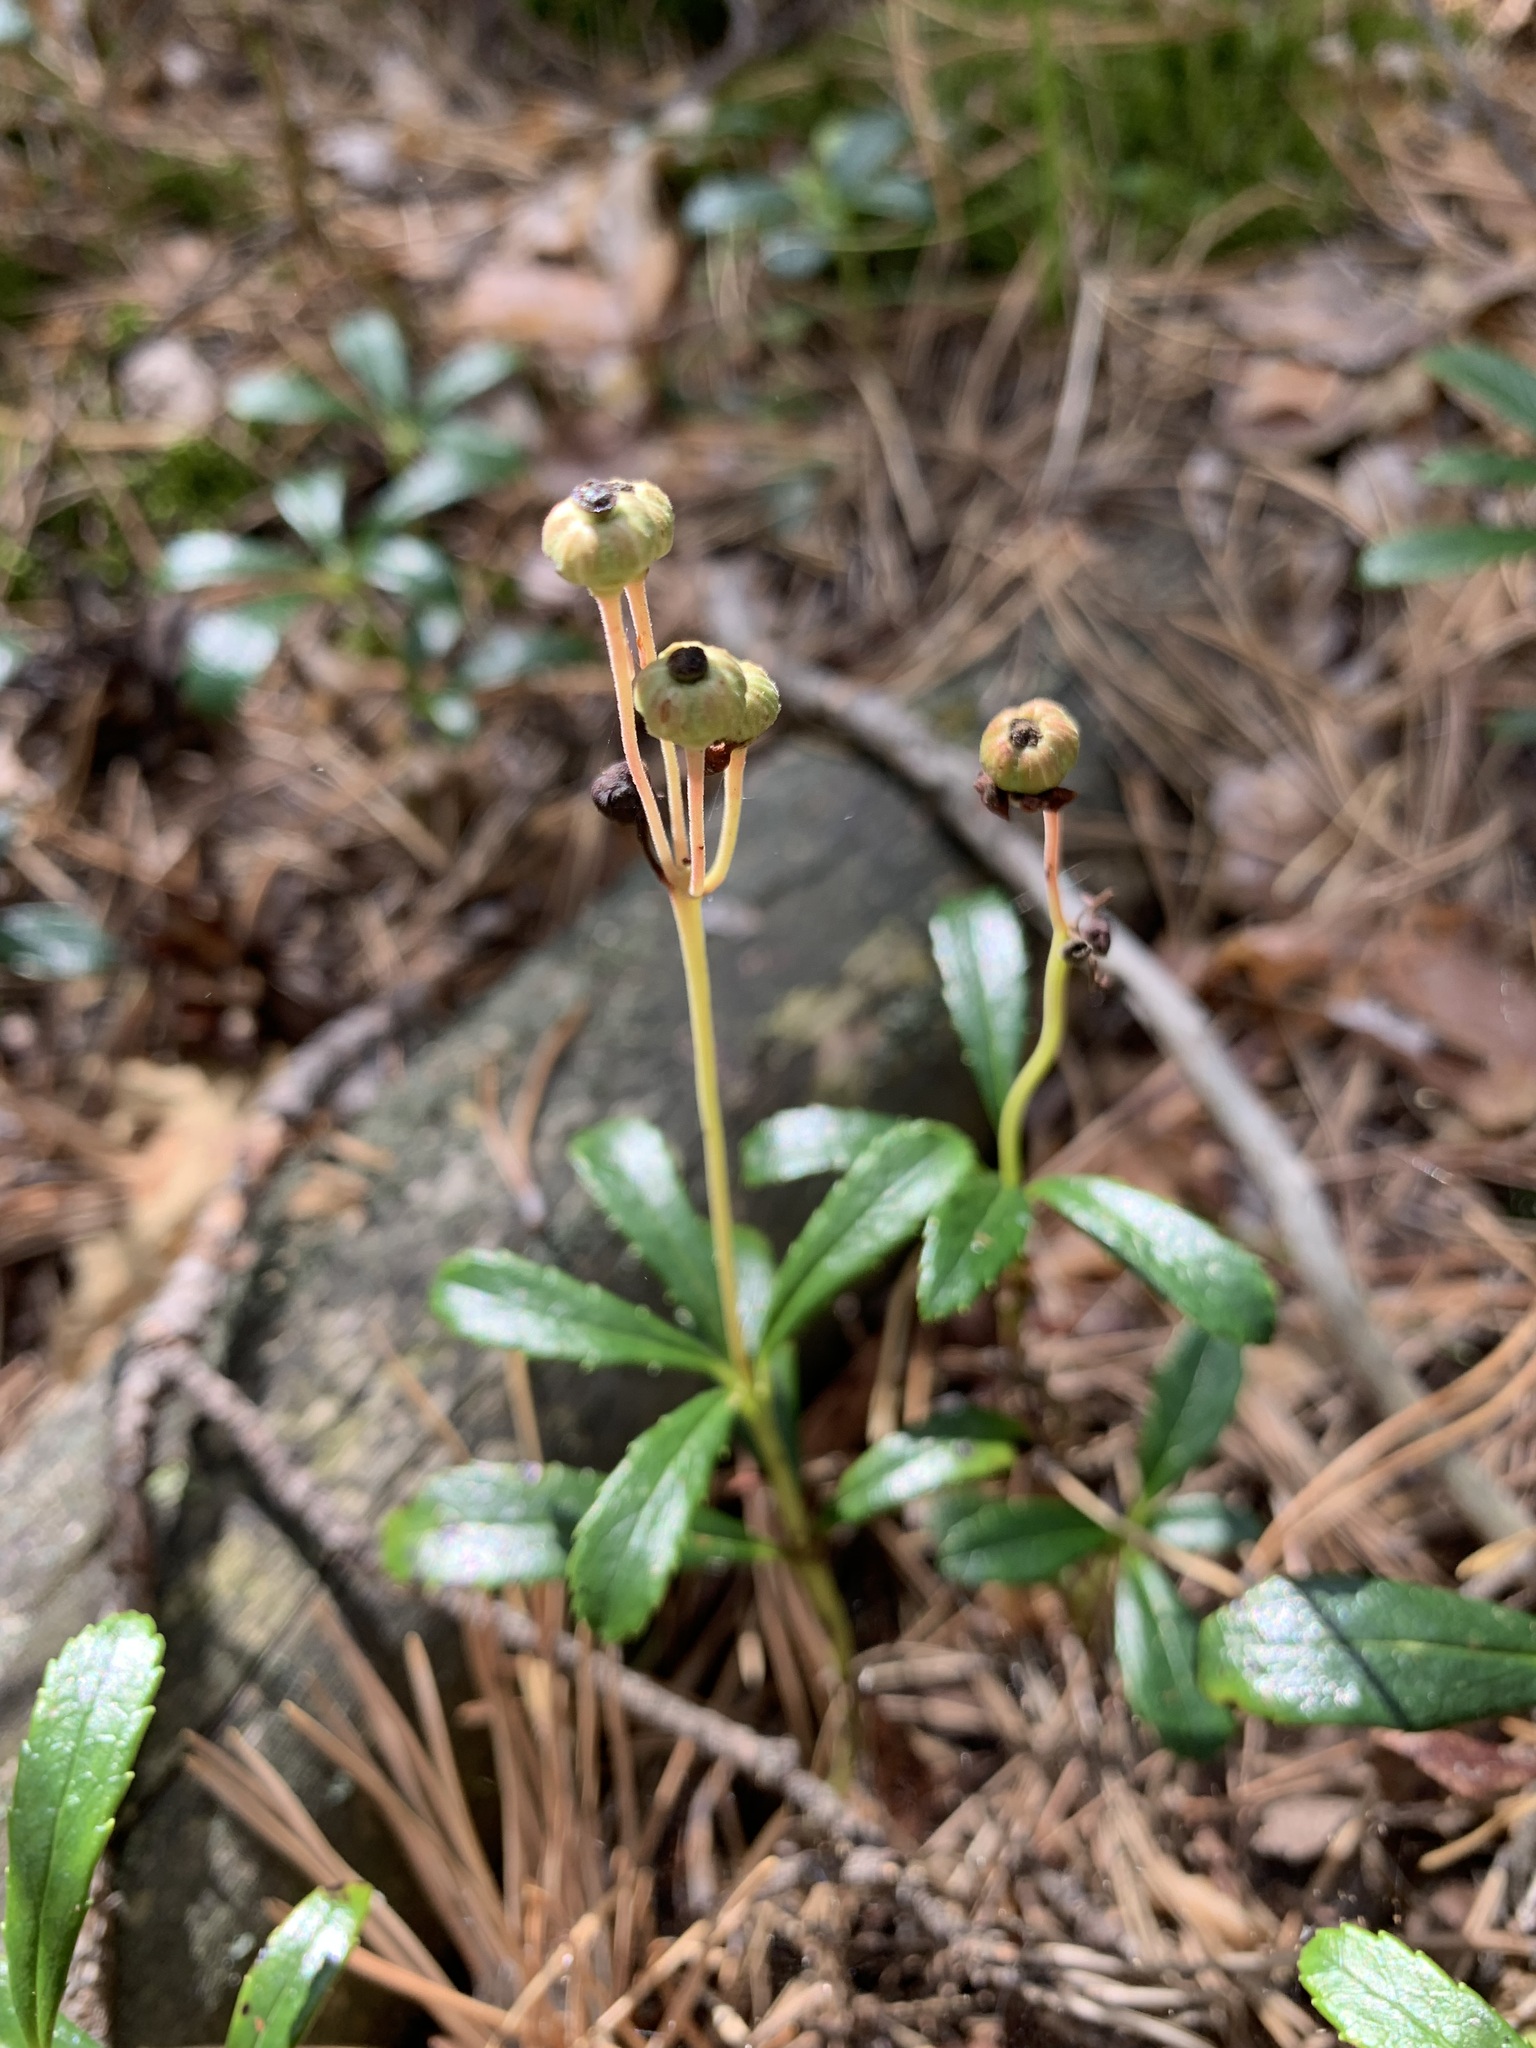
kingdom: Plantae
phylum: Tracheophyta
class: Magnoliopsida
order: Ericales
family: Ericaceae
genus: Chimaphila
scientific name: Chimaphila umbellata
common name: Pipsissewa
